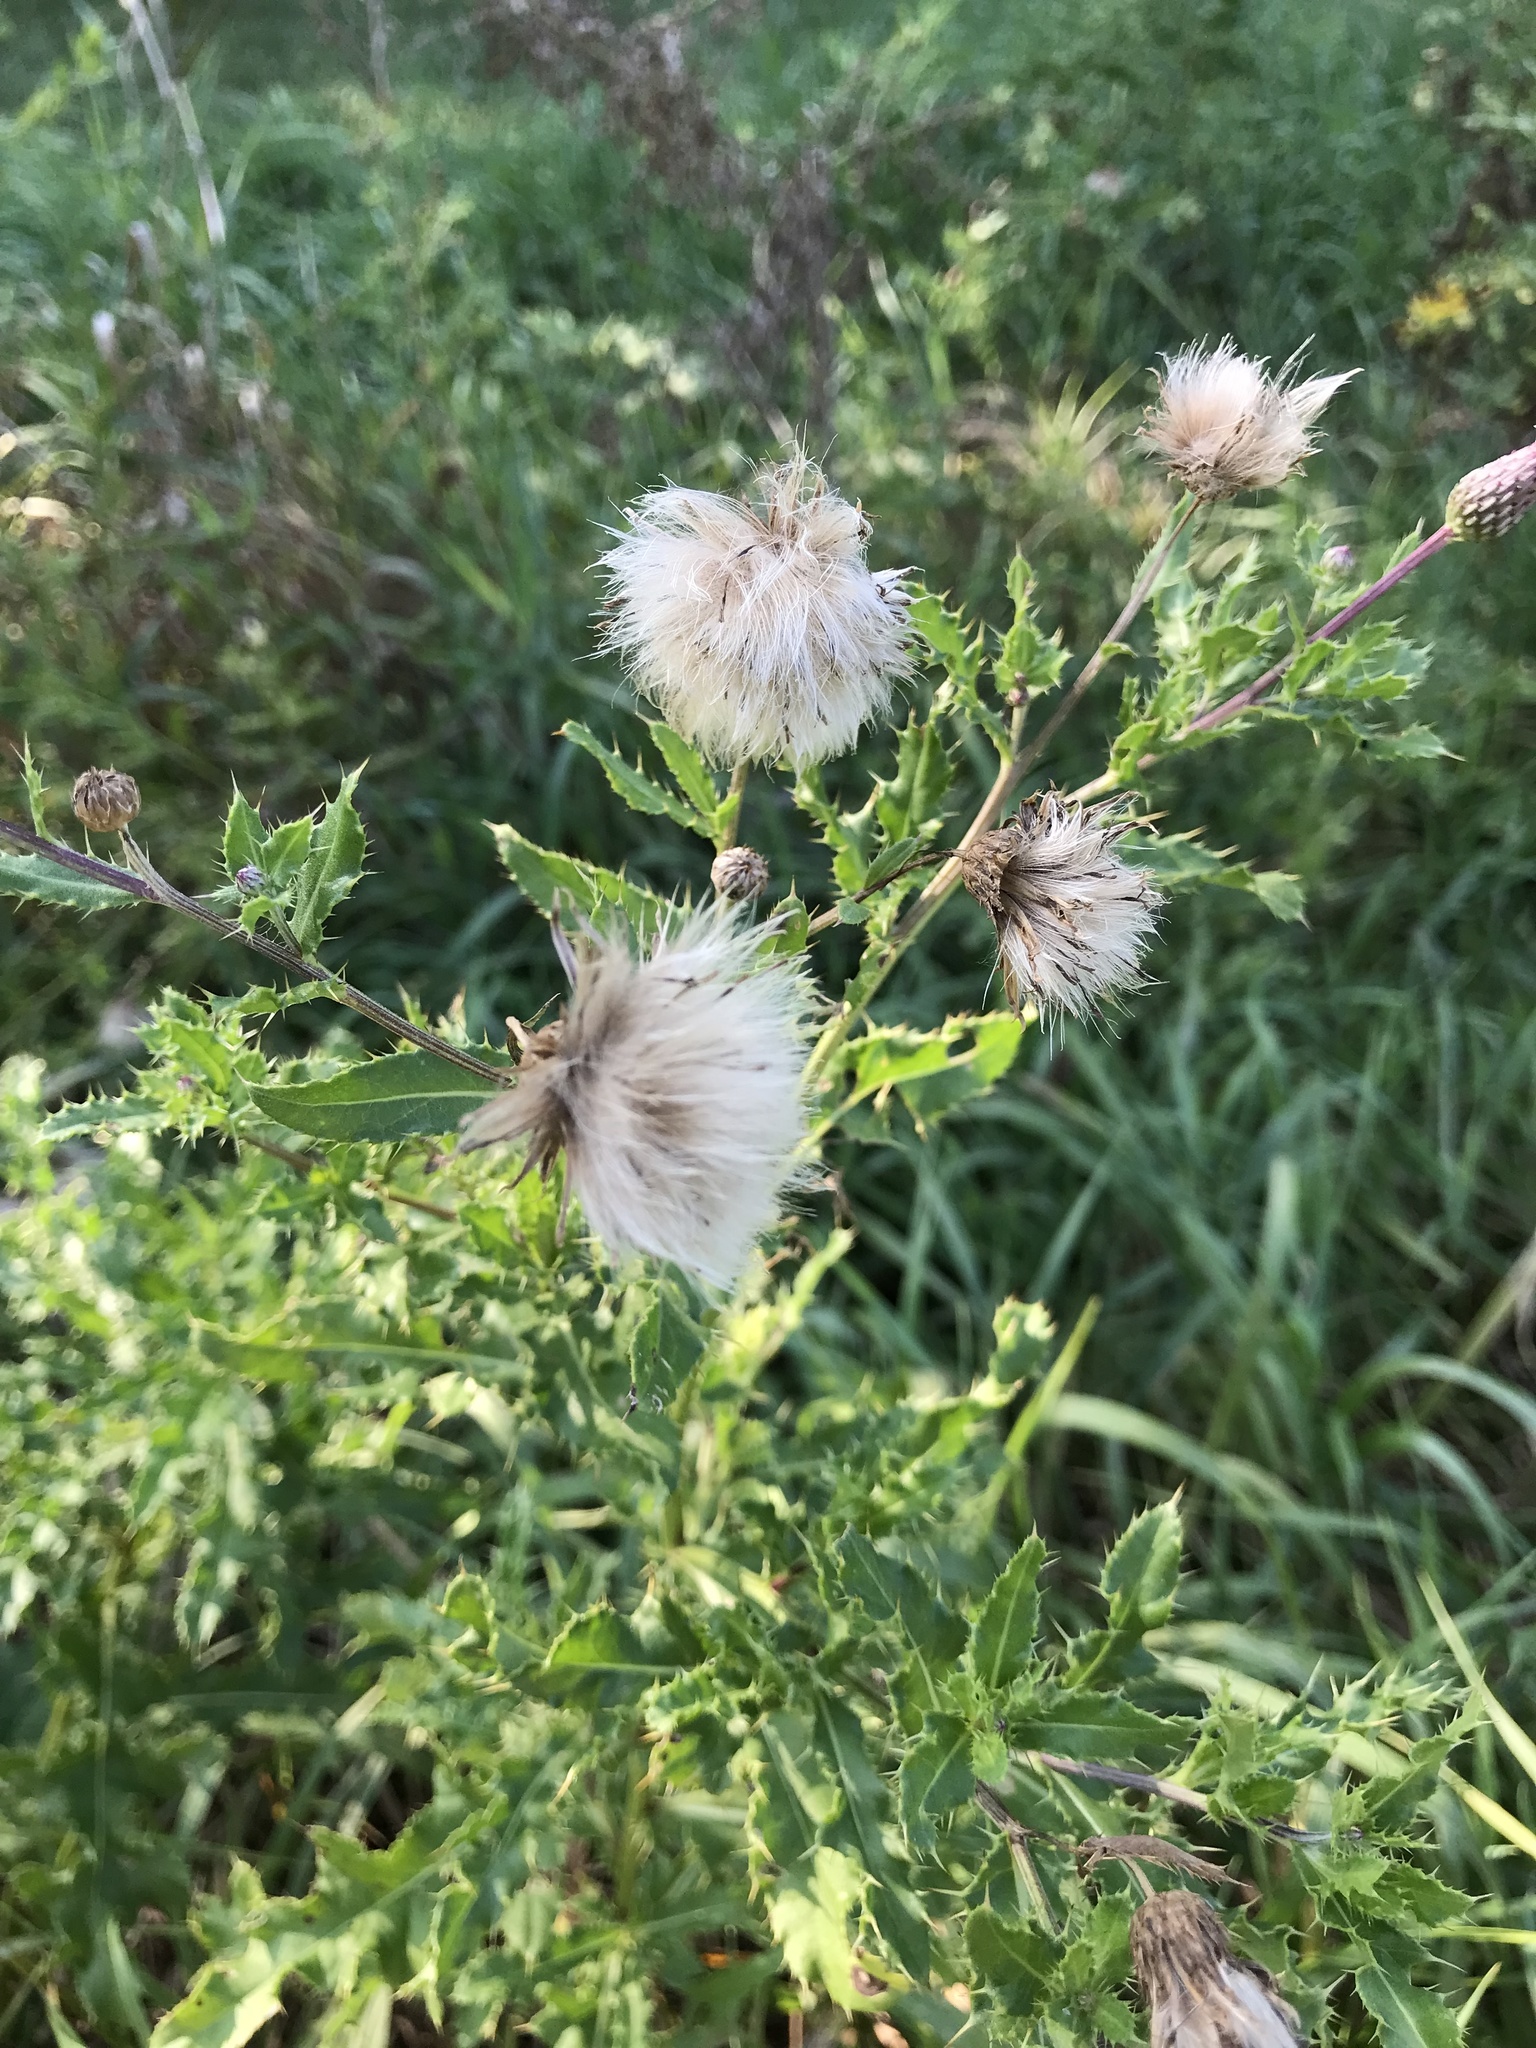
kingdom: Plantae
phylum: Tracheophyta
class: Magnoliopsida
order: Asterales
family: Asteraceae
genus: Cirsium
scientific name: Cirsium arvense
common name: Creeping thistle
